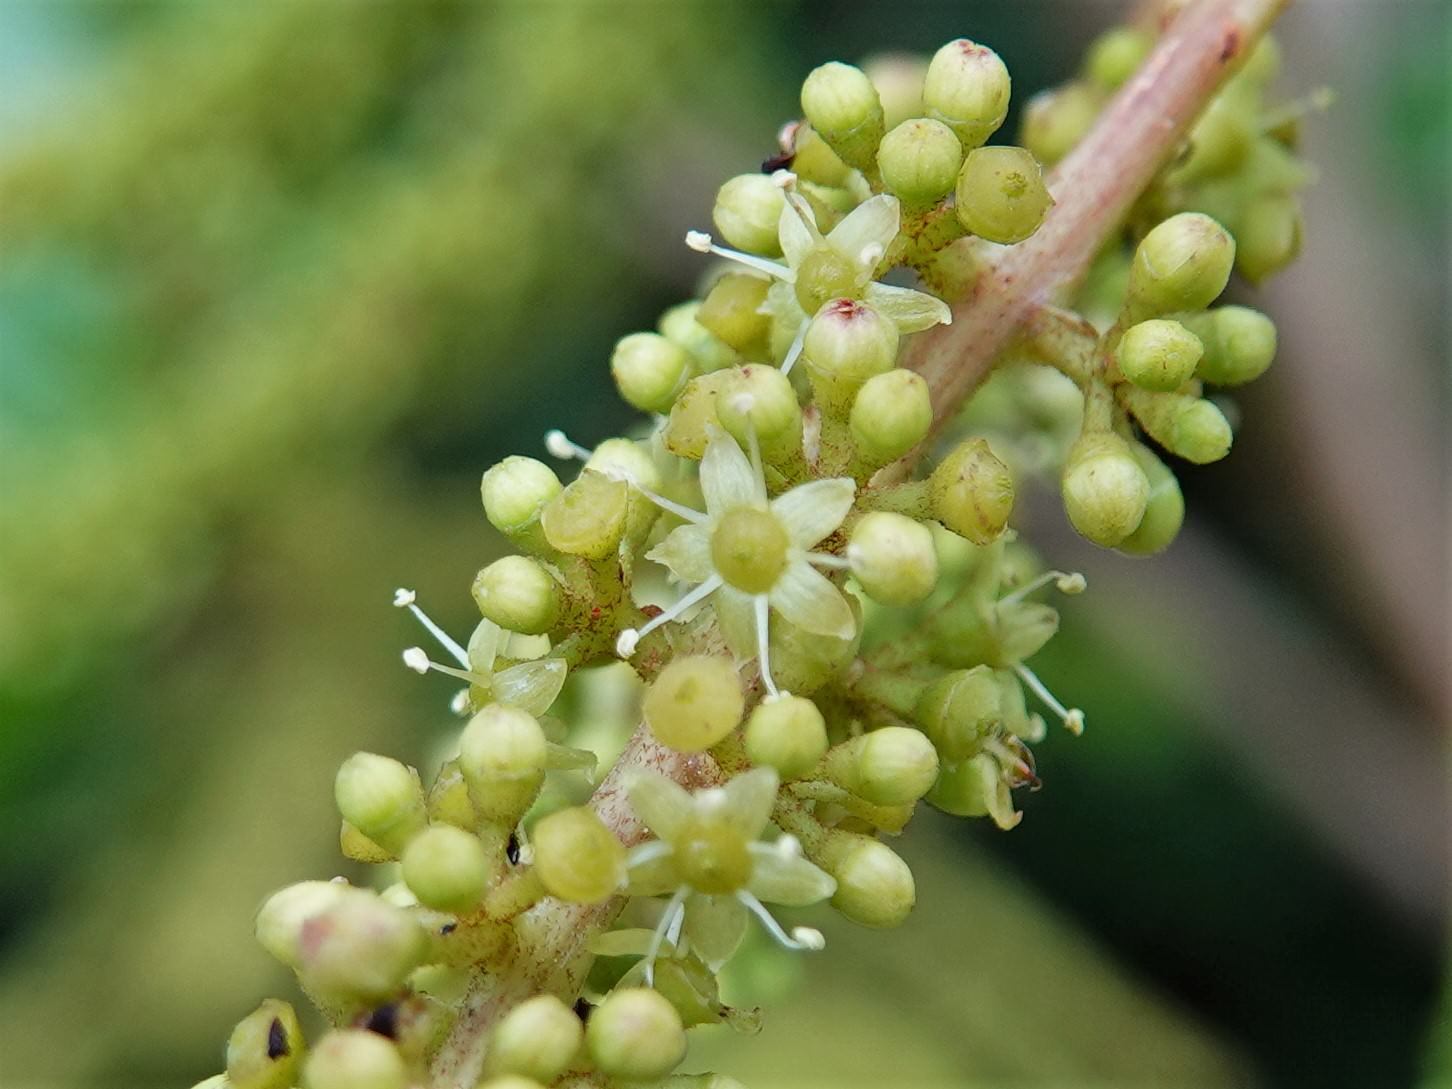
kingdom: Plantae
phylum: Tracheophyta
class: Magnoliopsida
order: Apiales
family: Araliaceae
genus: Schefflera
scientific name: Schefflera digitata
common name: Pate
